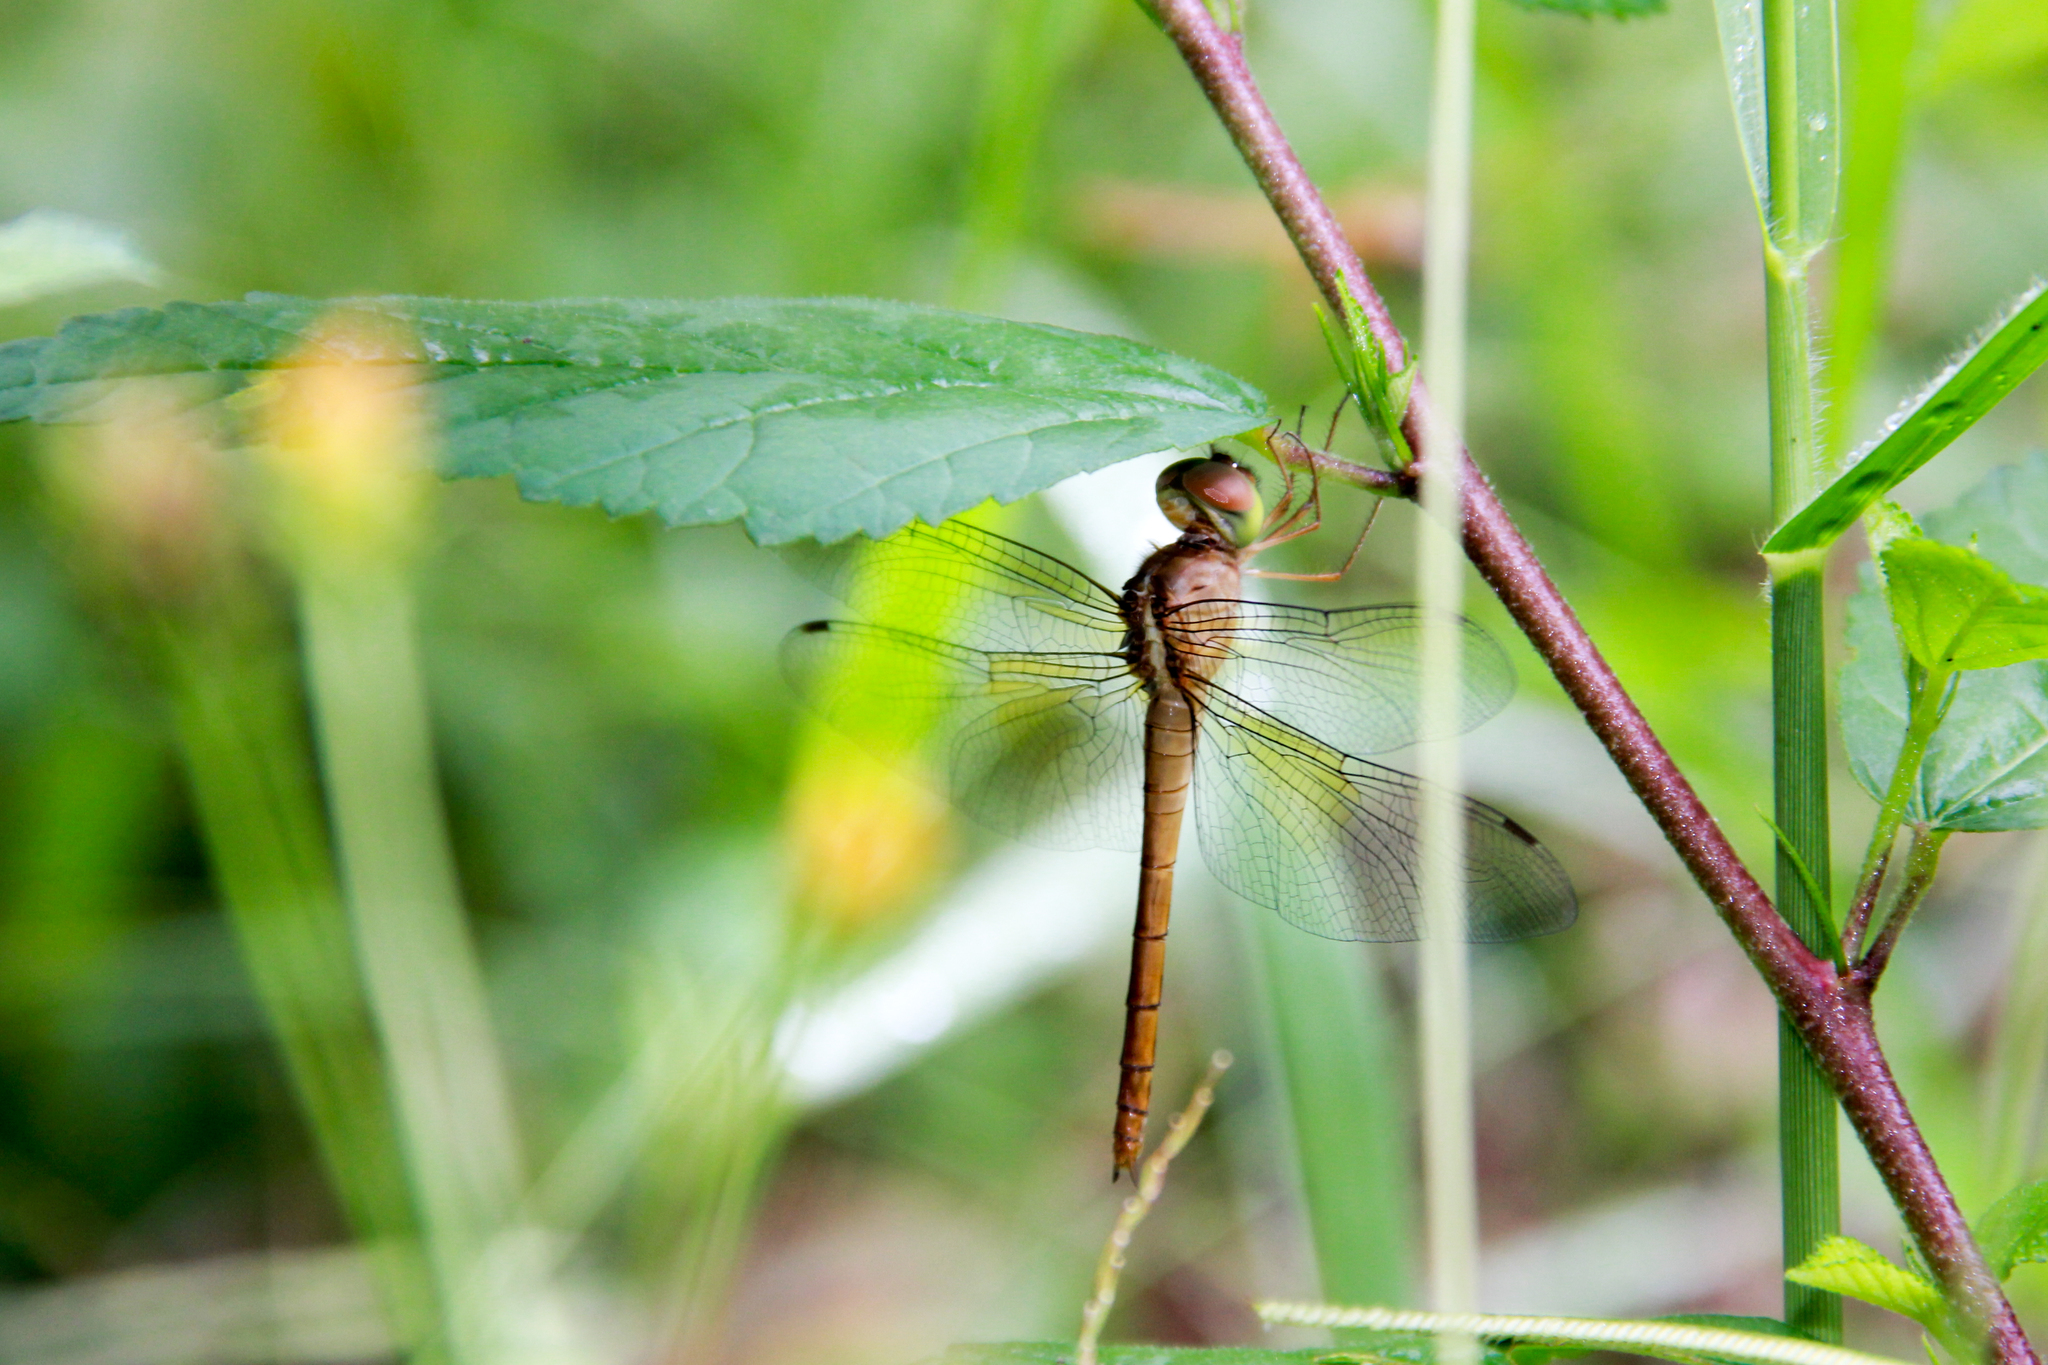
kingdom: Animalia
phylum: Arthropoda
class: Insecta
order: Odonata
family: Libellulidae
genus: Tholymis
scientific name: Tholymis tillarga
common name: Coral-tailed cloud wing
